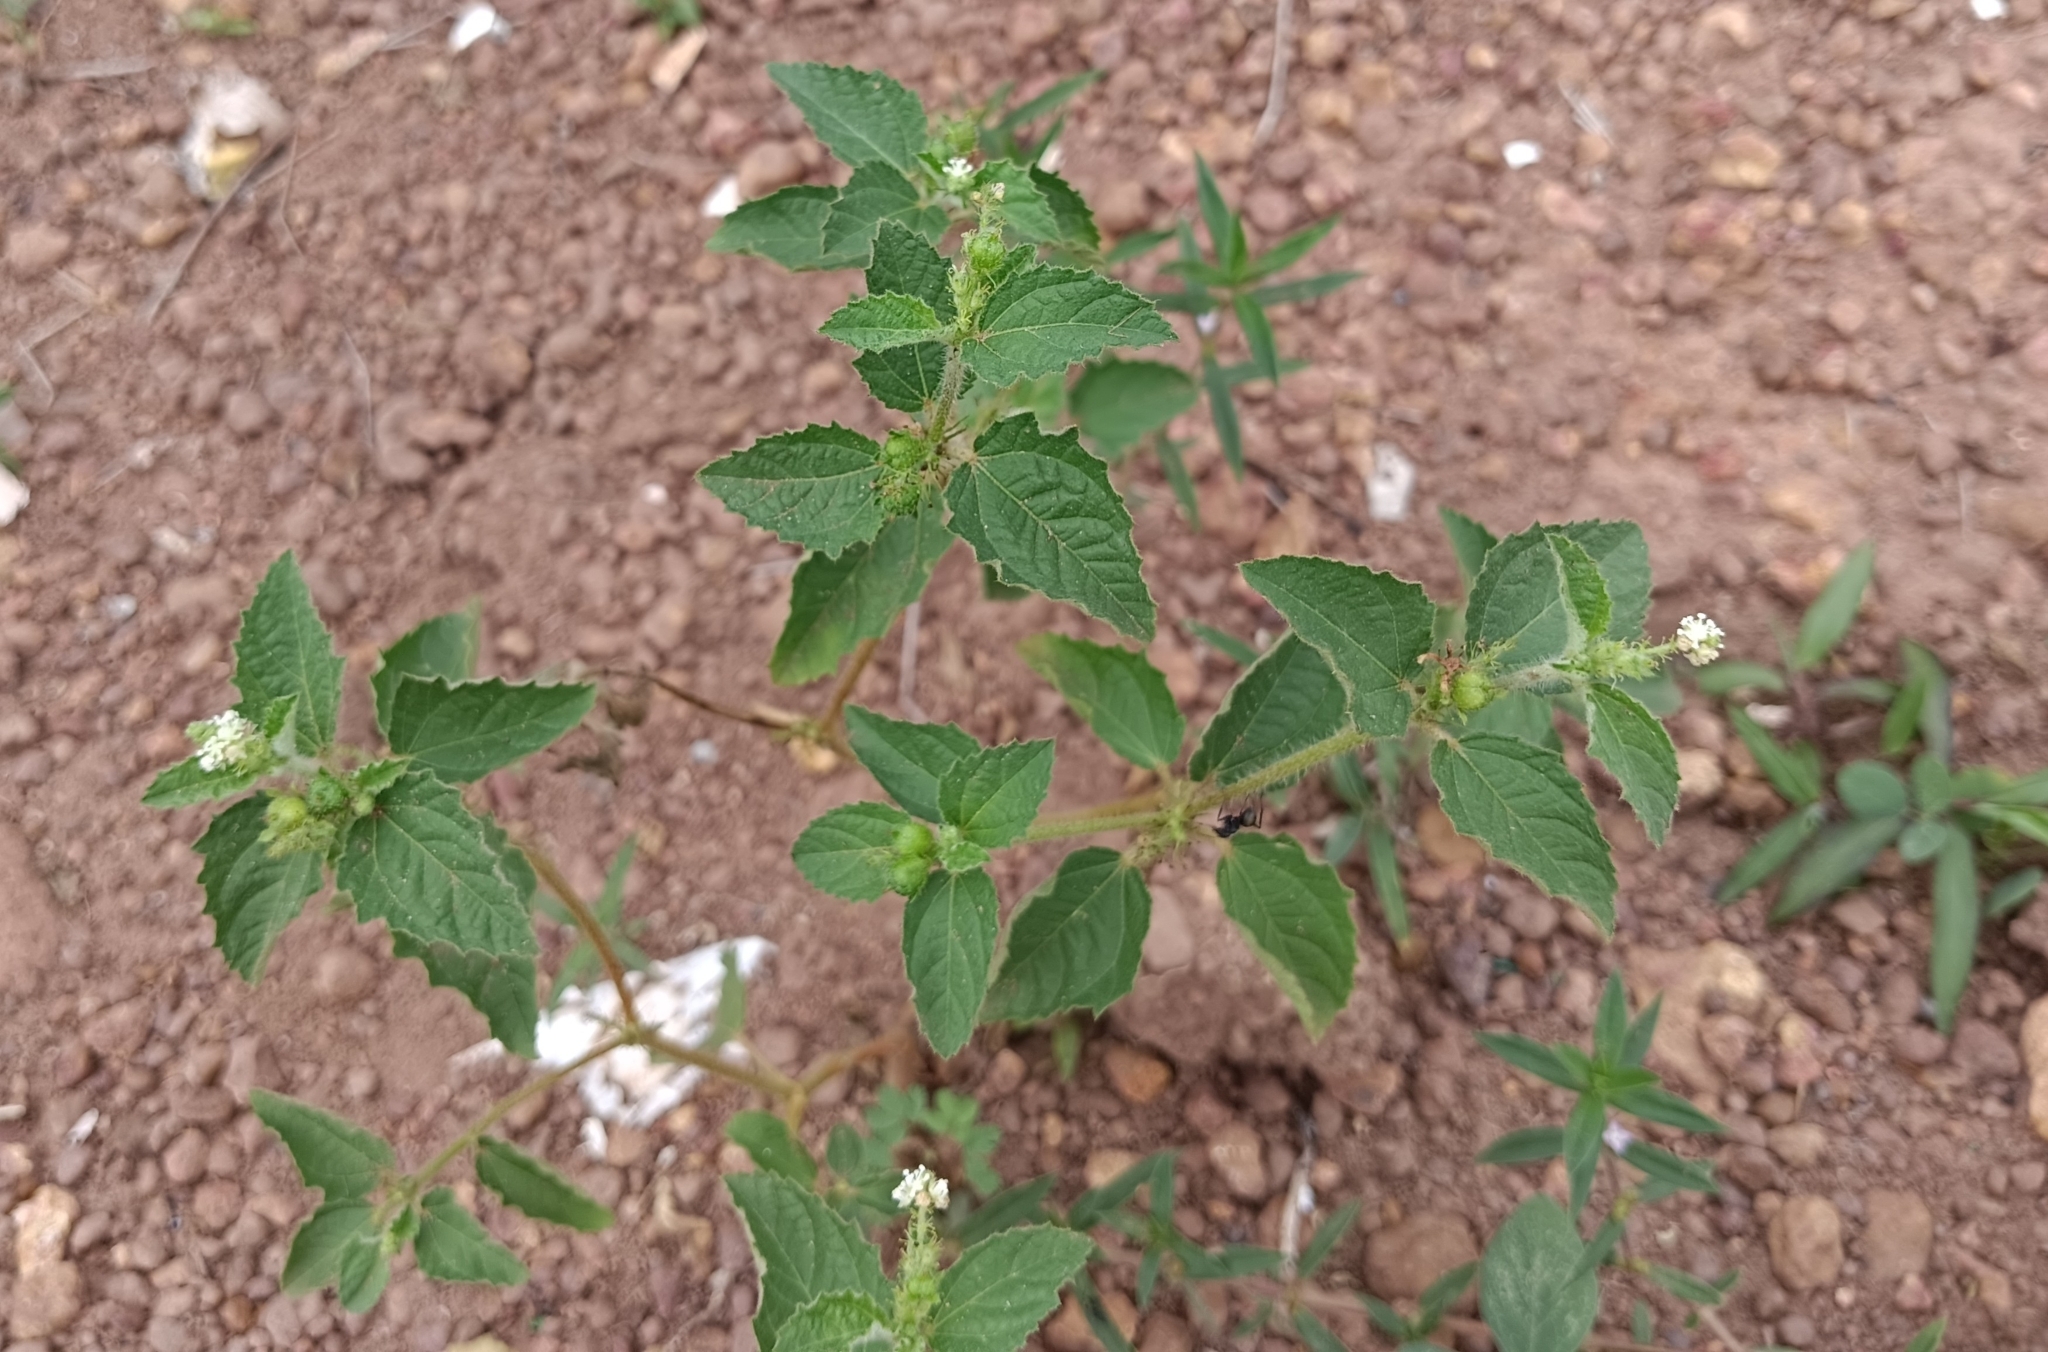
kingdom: Plantae
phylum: Tracheophyta
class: Magnoliopsida
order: Malpighiales
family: Euphorbiaceae
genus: Croton
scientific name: Croton hirtus
